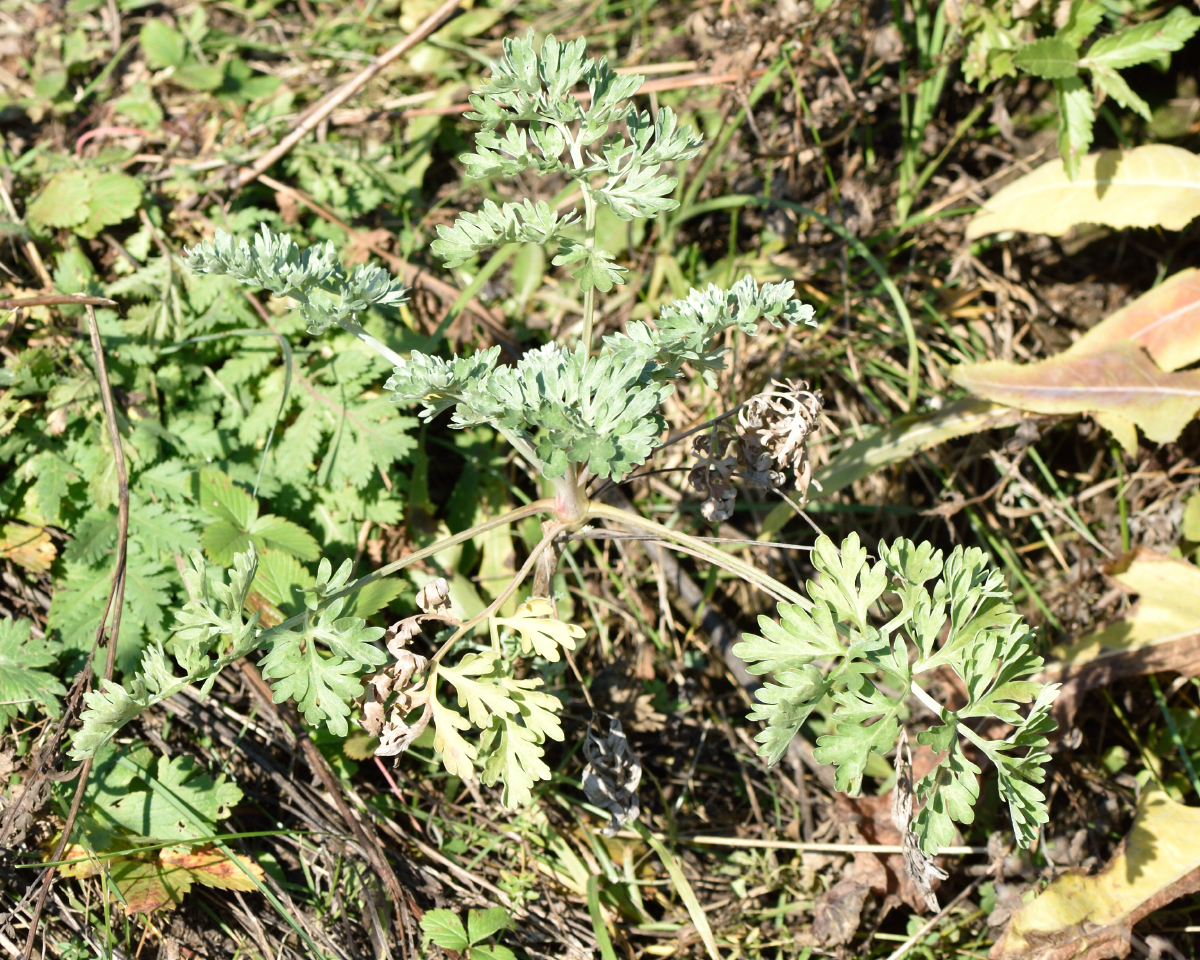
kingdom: Plantae
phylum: Tracheophyta
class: Magnoliopsida
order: Asterales
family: Asteraceae
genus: Artemisia
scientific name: Artemisia absinthium
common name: Wormwood
